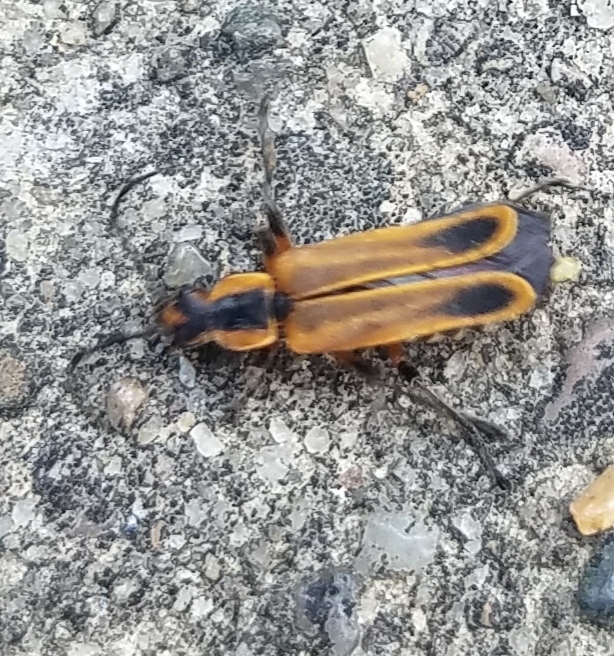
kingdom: Animalia
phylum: Arthropoda
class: Insecta
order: Coleoptera
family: Cantharidae
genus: Chauliognathus
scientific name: Chauliognathus marginatus
